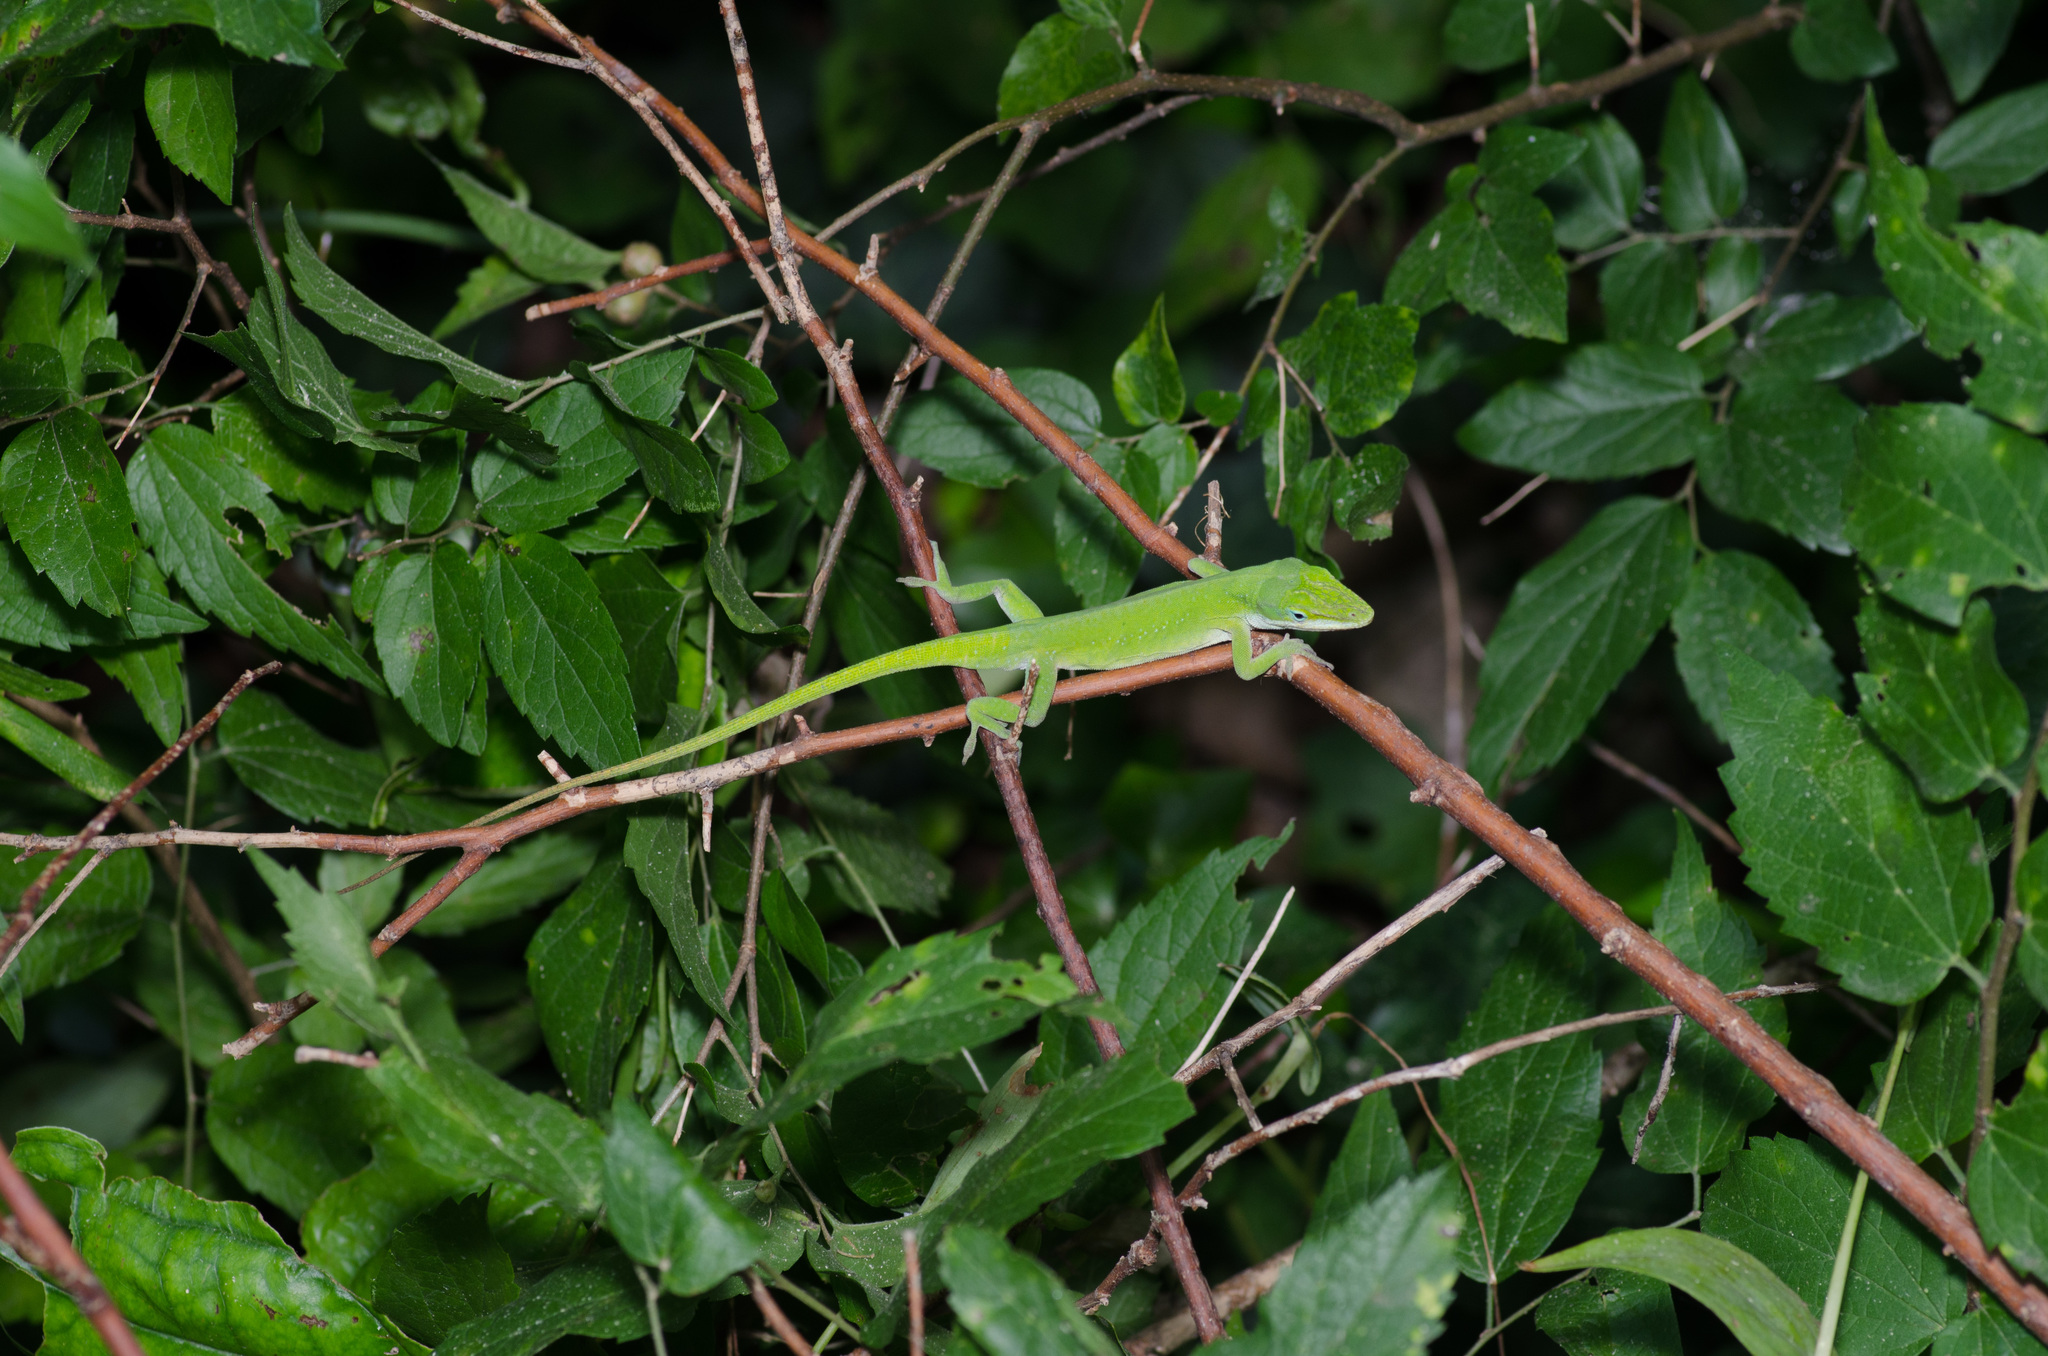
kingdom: Animalia
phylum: Chordata
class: Squamata
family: Dactyloidae
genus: Anolis
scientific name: Anolis carolinensis
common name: Green anole
